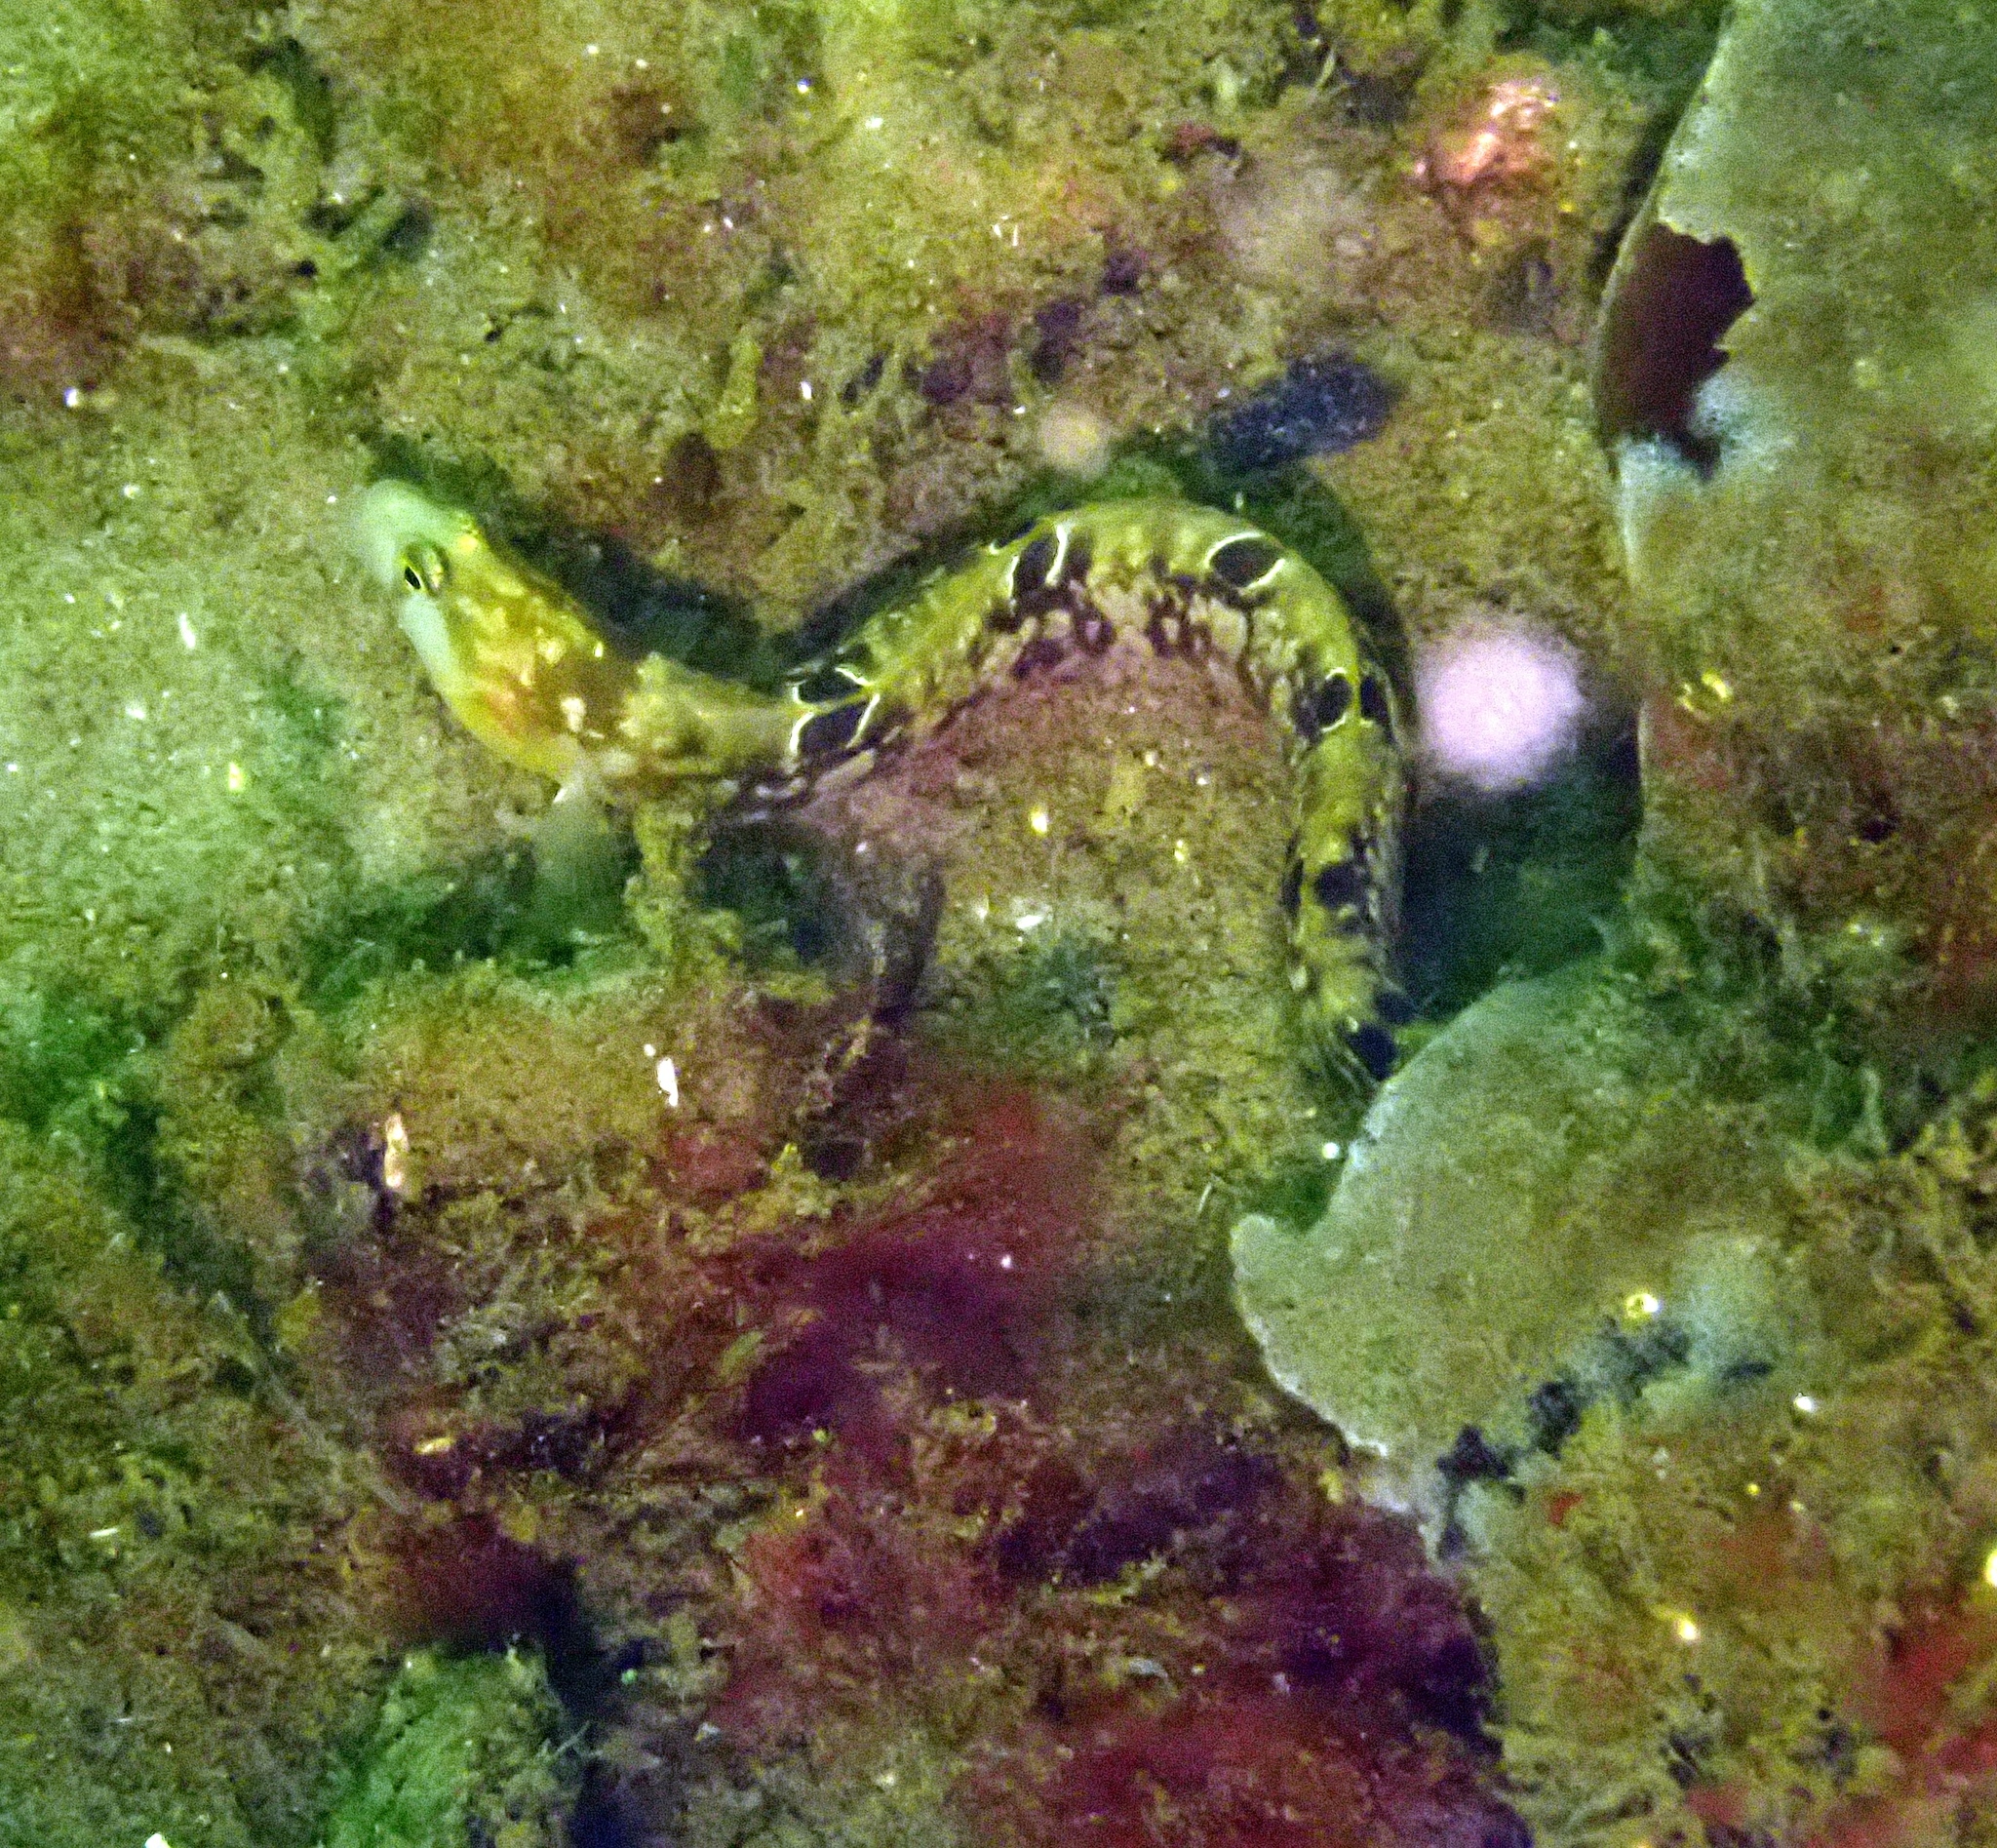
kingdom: Animalia
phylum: Chordata
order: Perciformes
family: Pholidae
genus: Pholis
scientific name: Pholis gunnellus
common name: Butterfish
